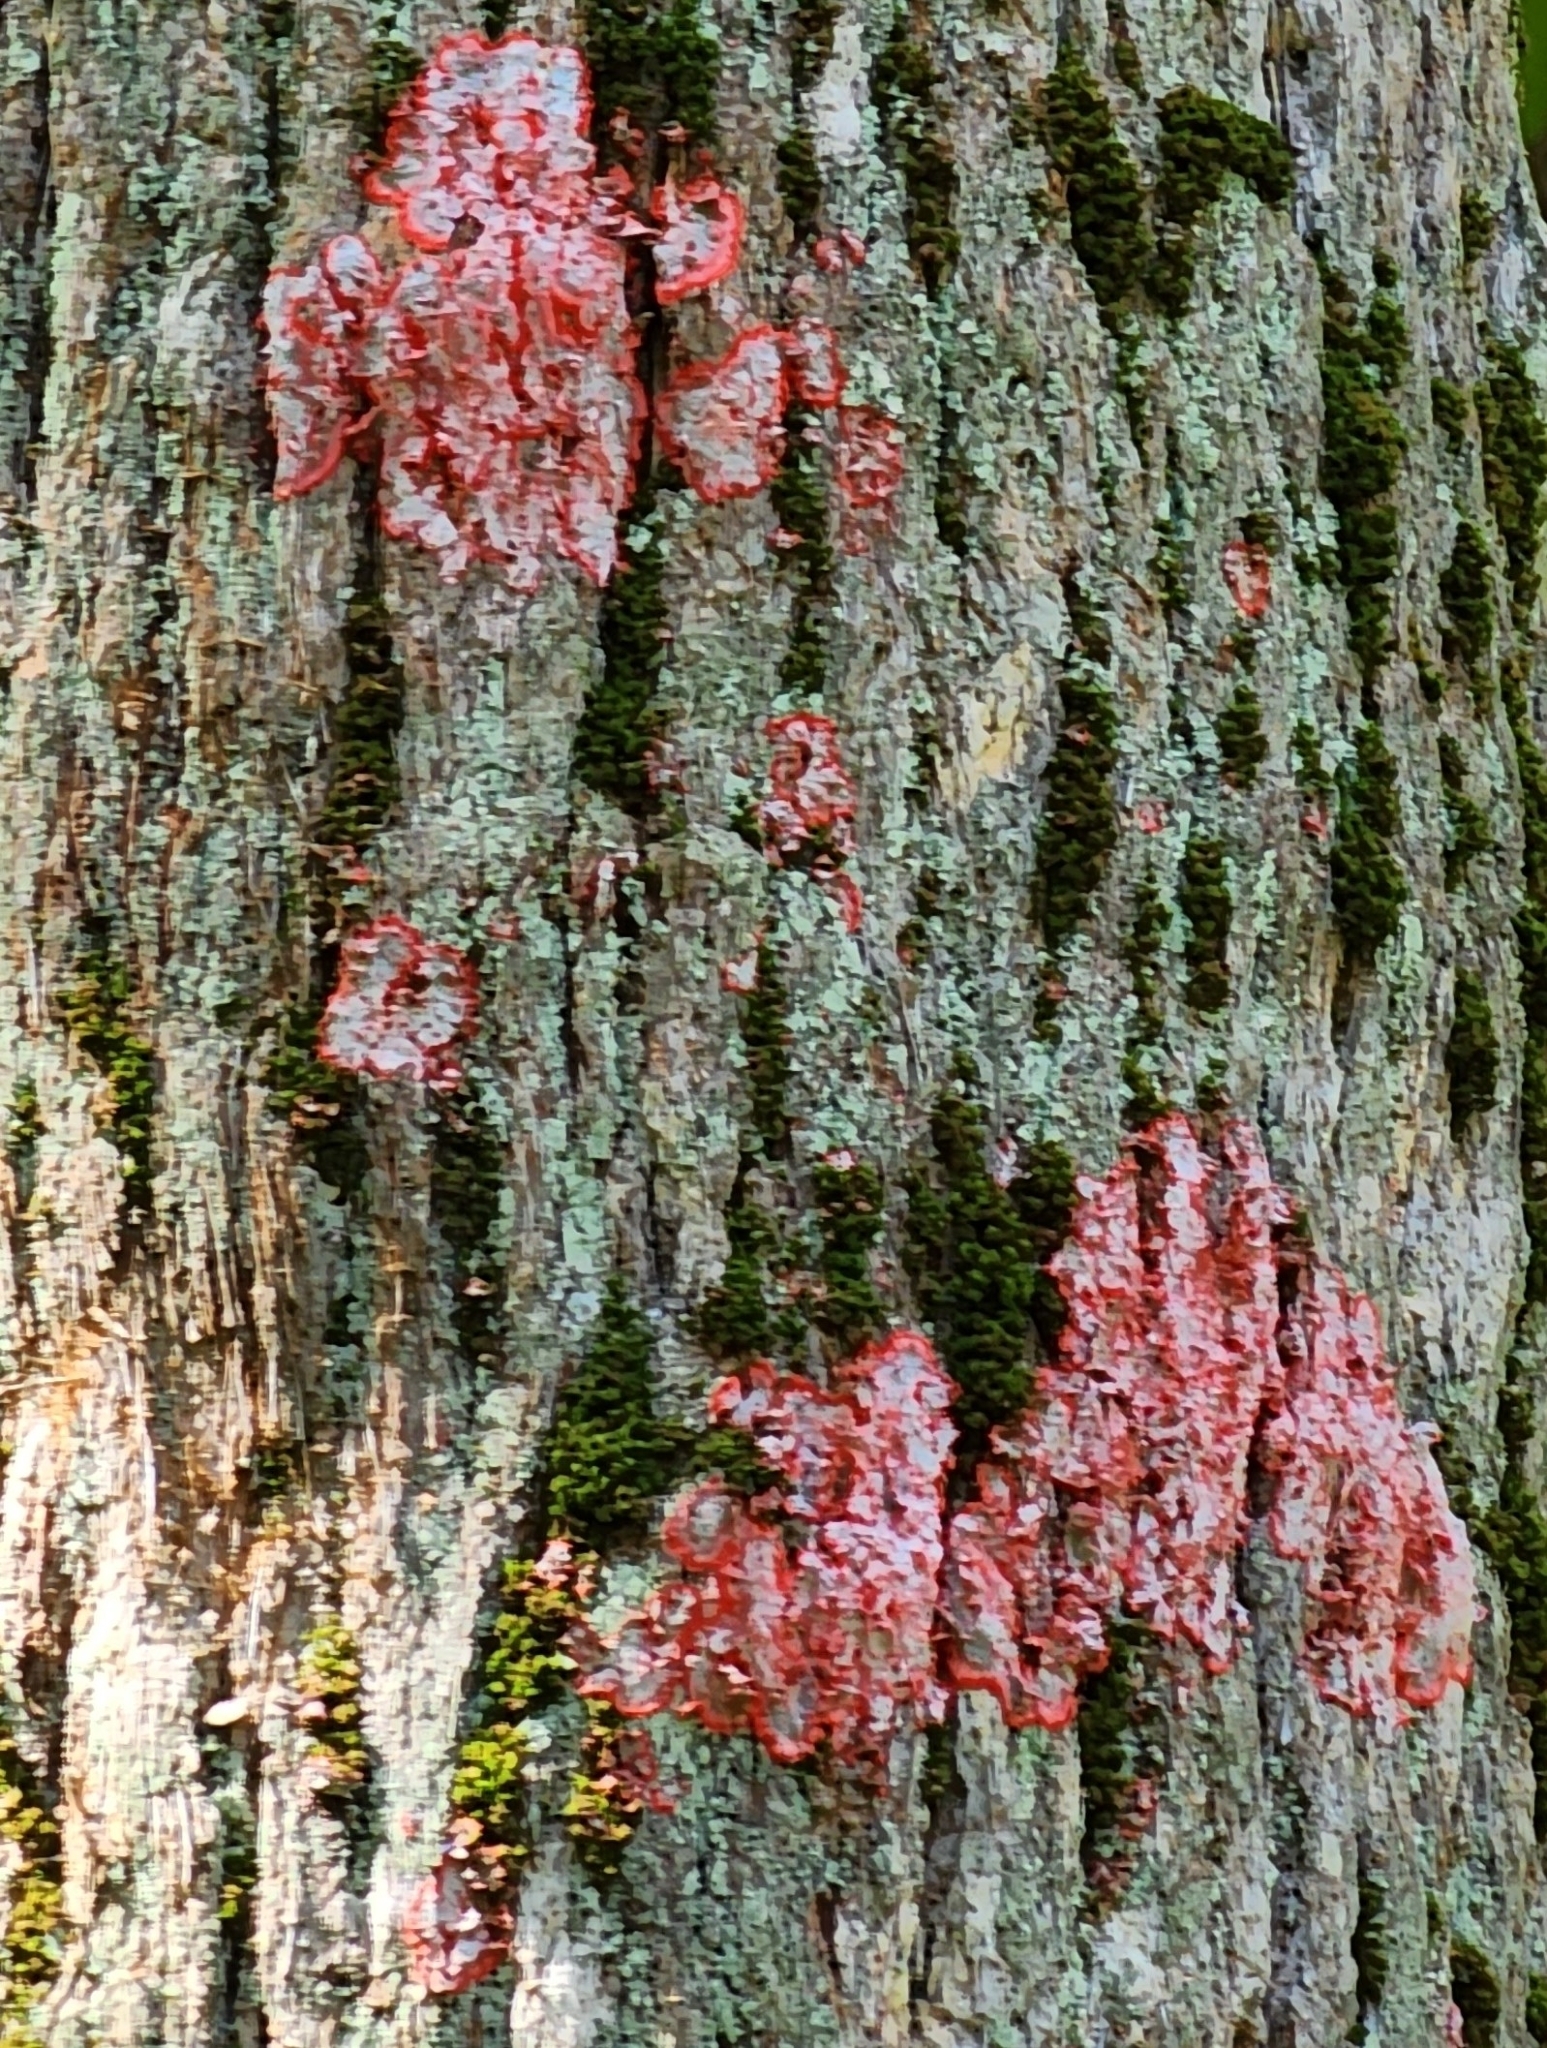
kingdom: Fungi
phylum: Ascomycota
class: Arthoniomycetes
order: Arthoniales
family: Arthoniaceae
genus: Herpothallon
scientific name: Herpothallon rubrocinctum
